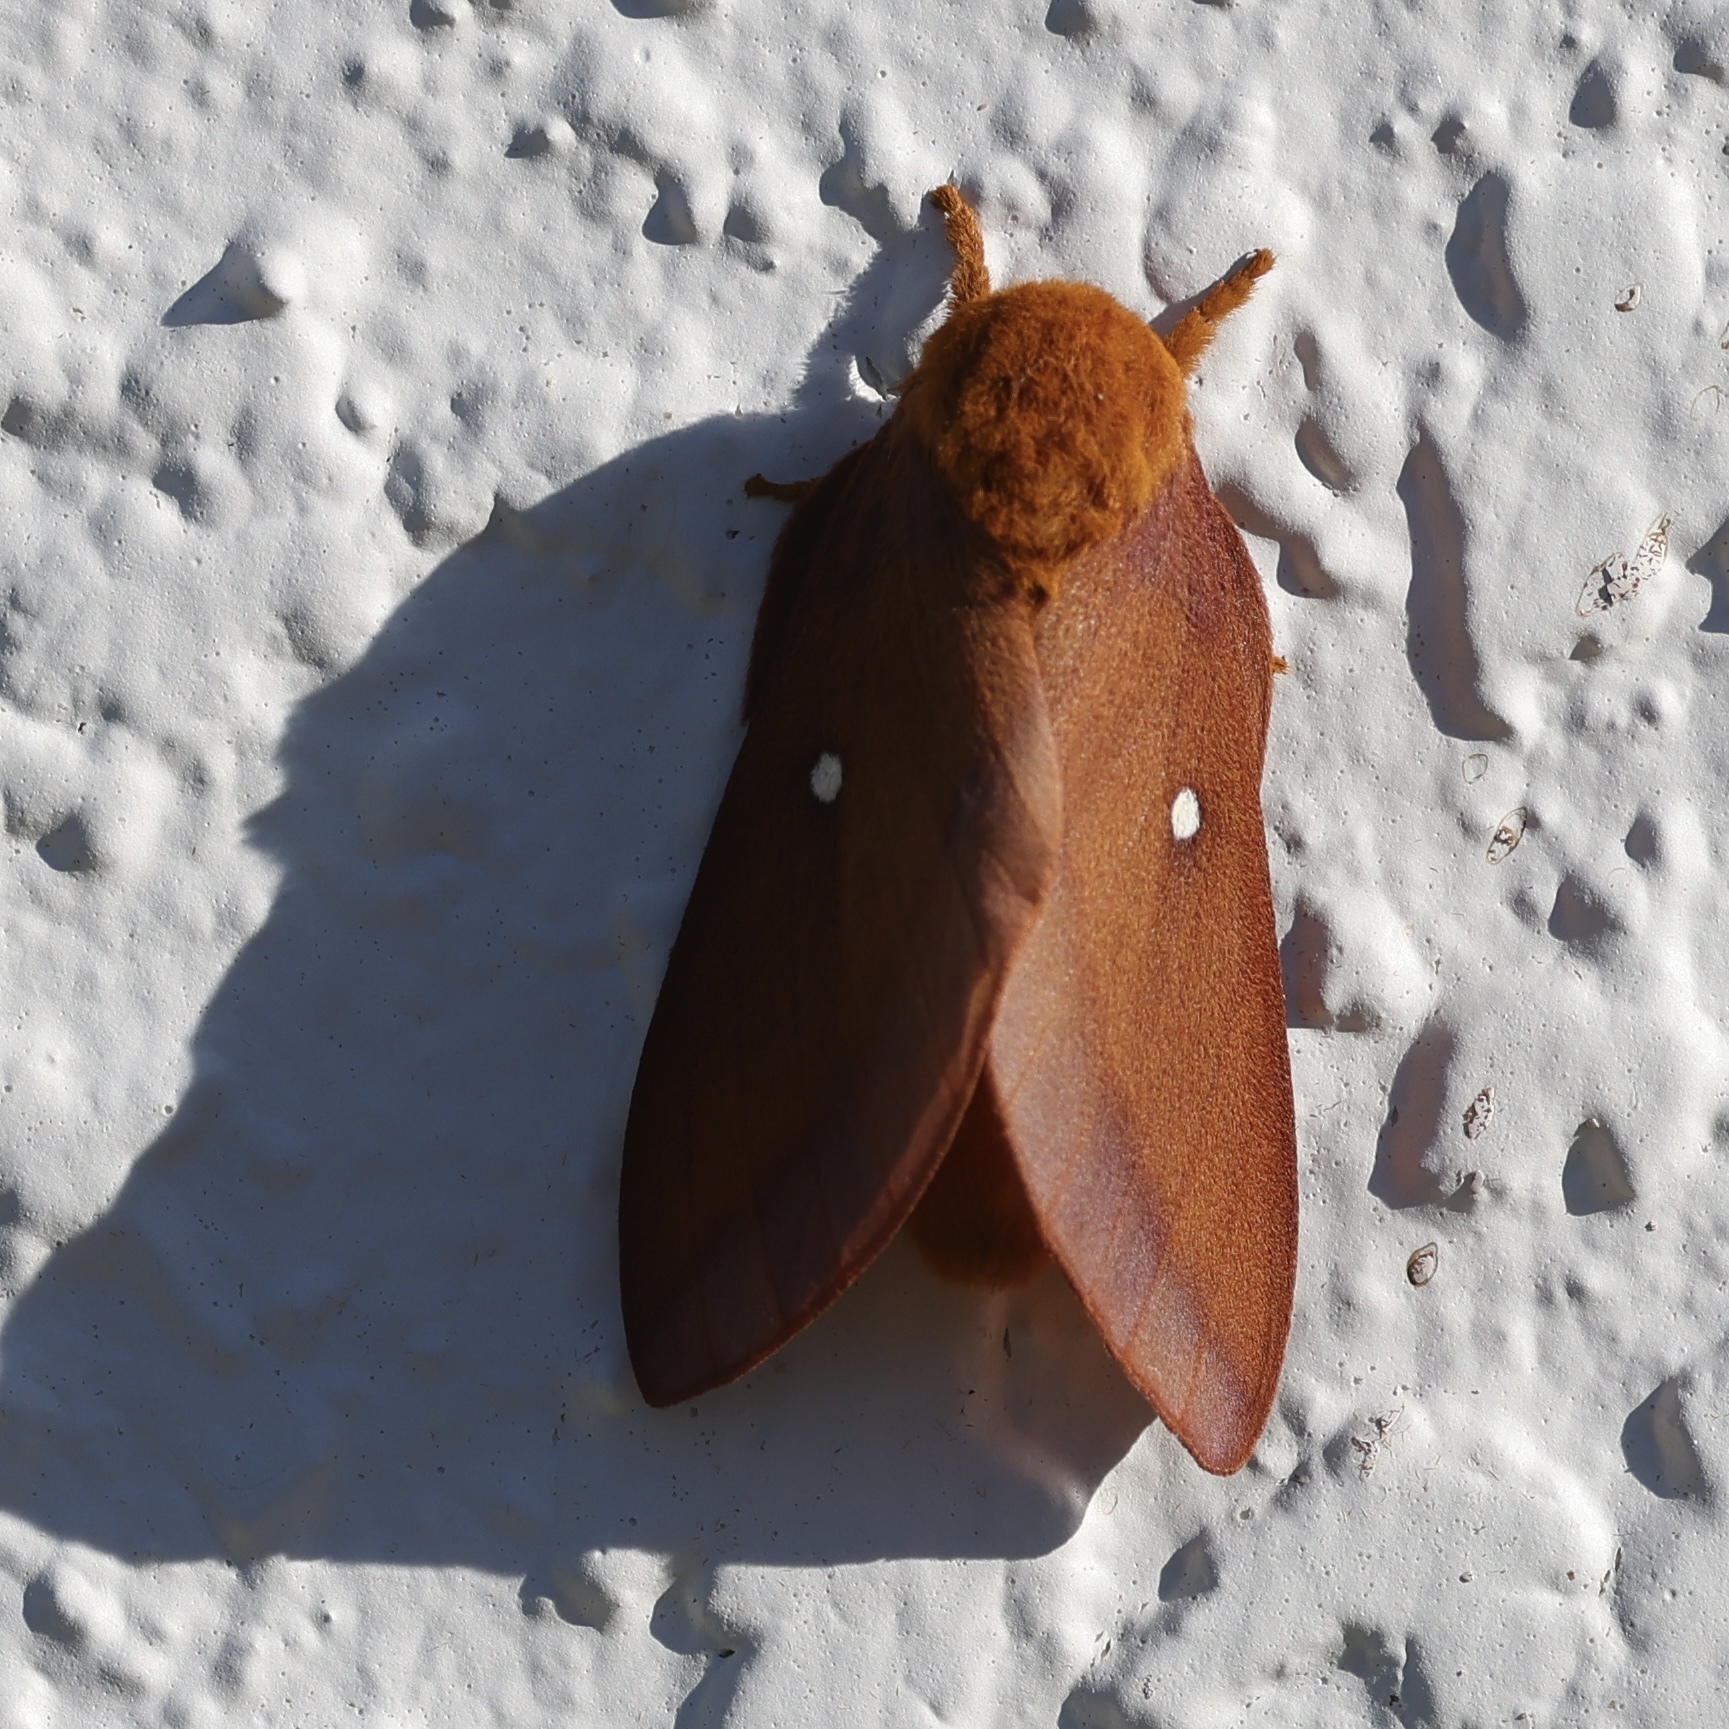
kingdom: Animalia
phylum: Arthropoda
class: Insecta
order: Lepidoptera
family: Saturniidae
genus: Anisota
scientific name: Anisota virginiensis
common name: Pink striped oakworm moth
